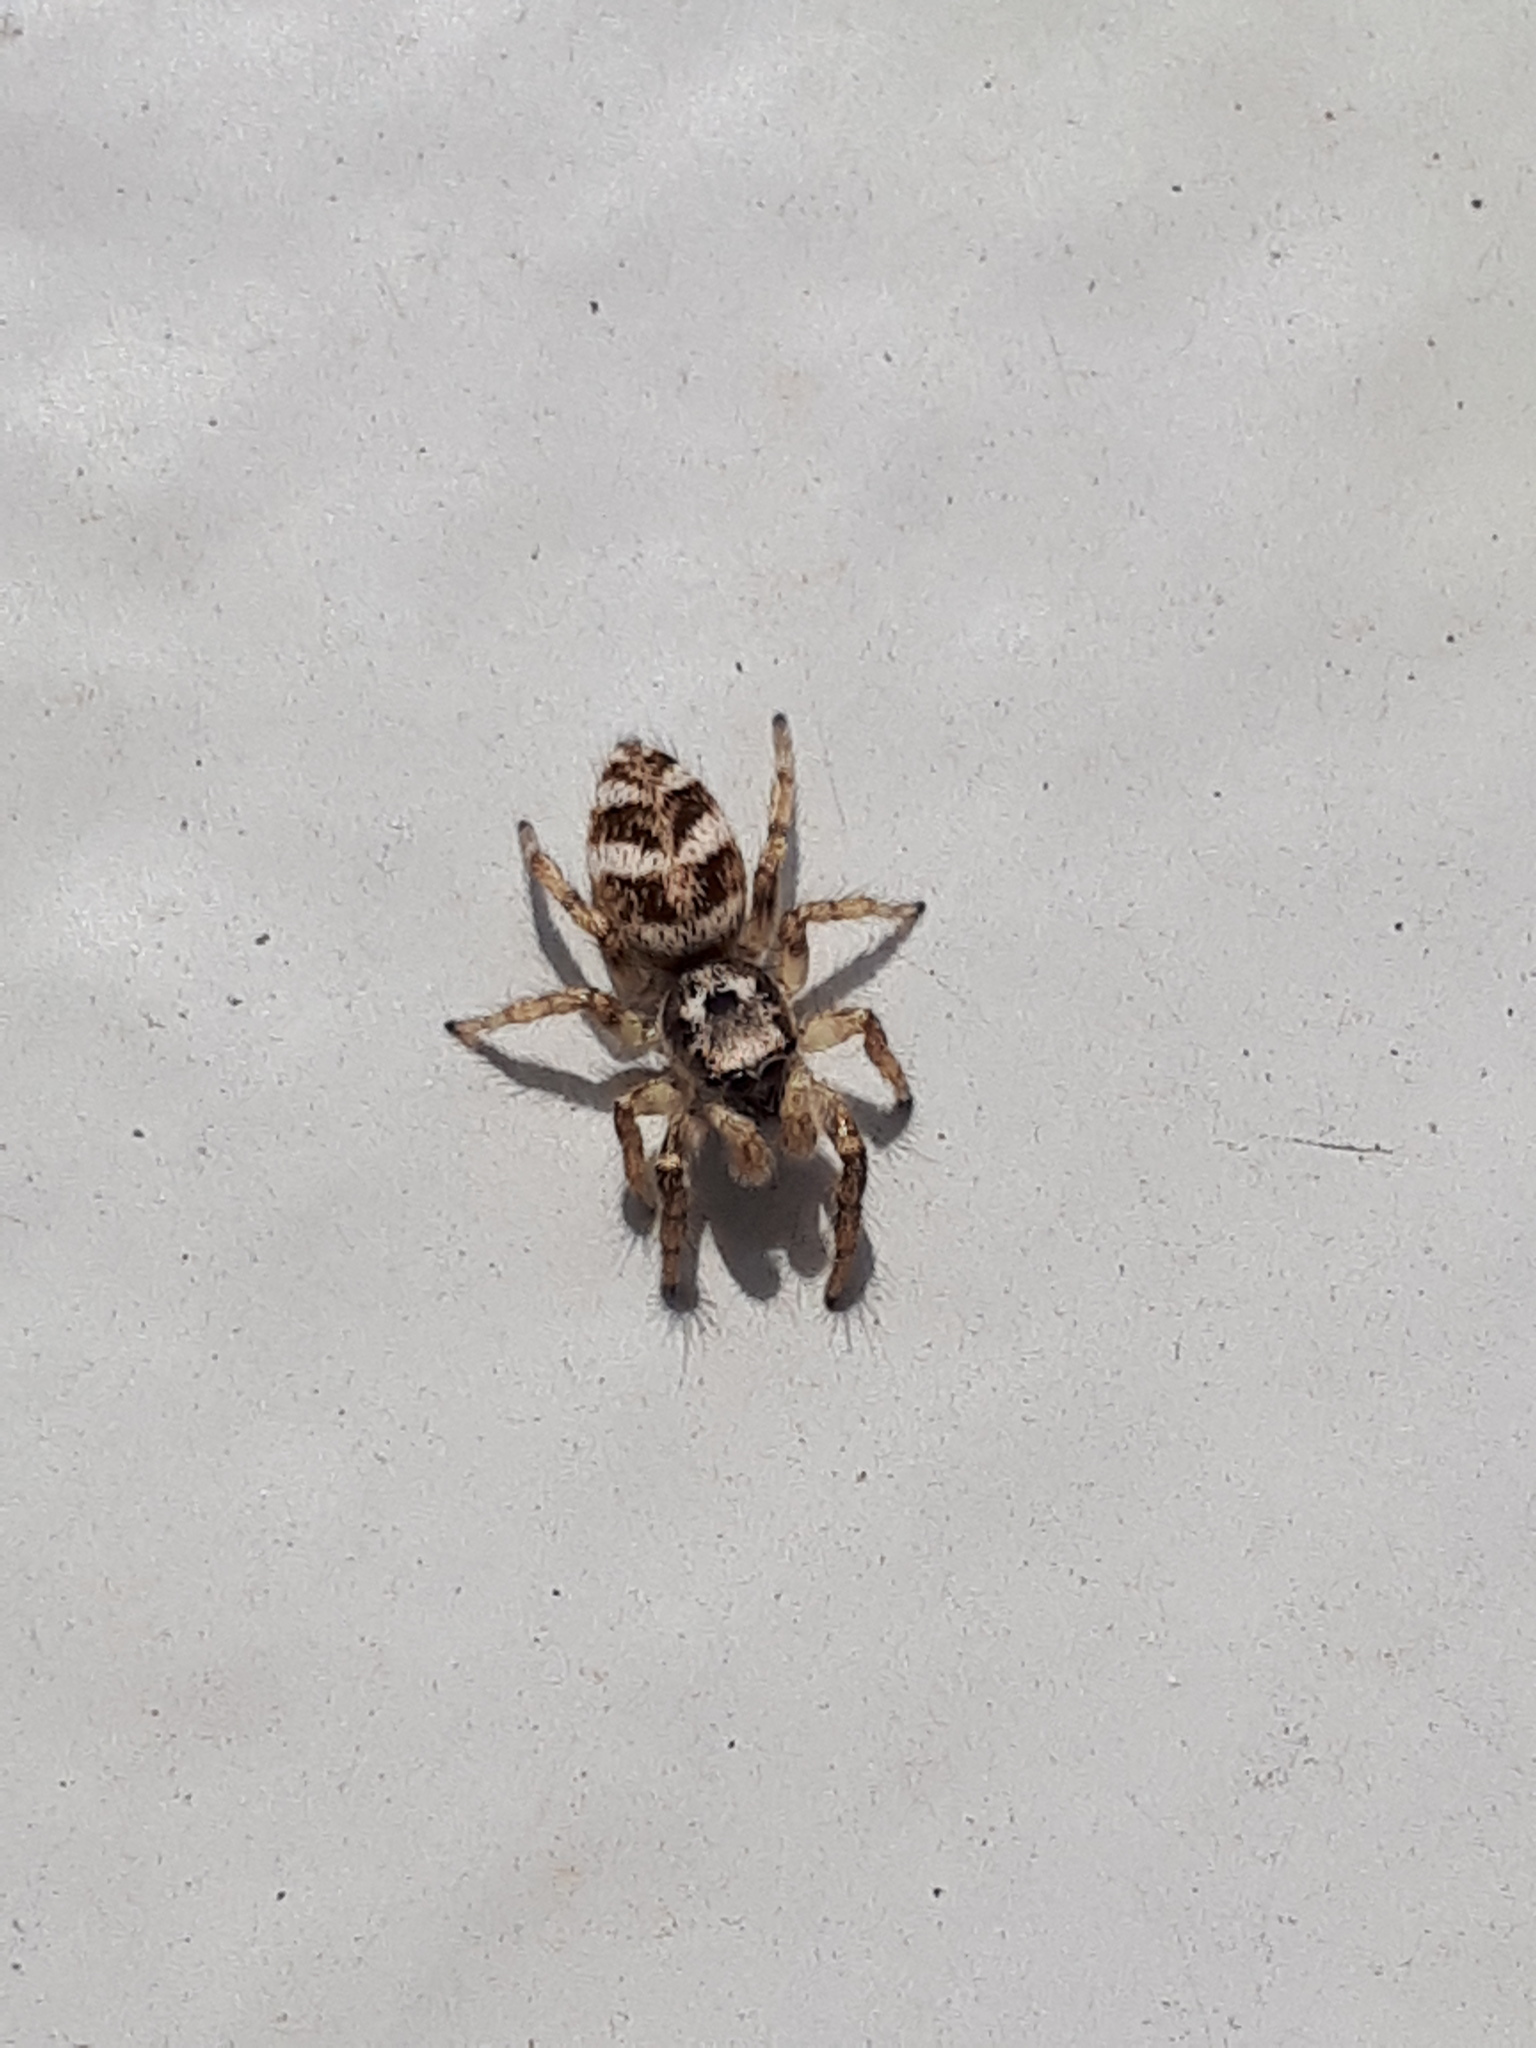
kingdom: Animalia
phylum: Arthropoda
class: Arachnida
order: Araneae
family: Salticidae
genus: Salticus
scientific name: Salticus scenicus
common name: Zebra jumper
